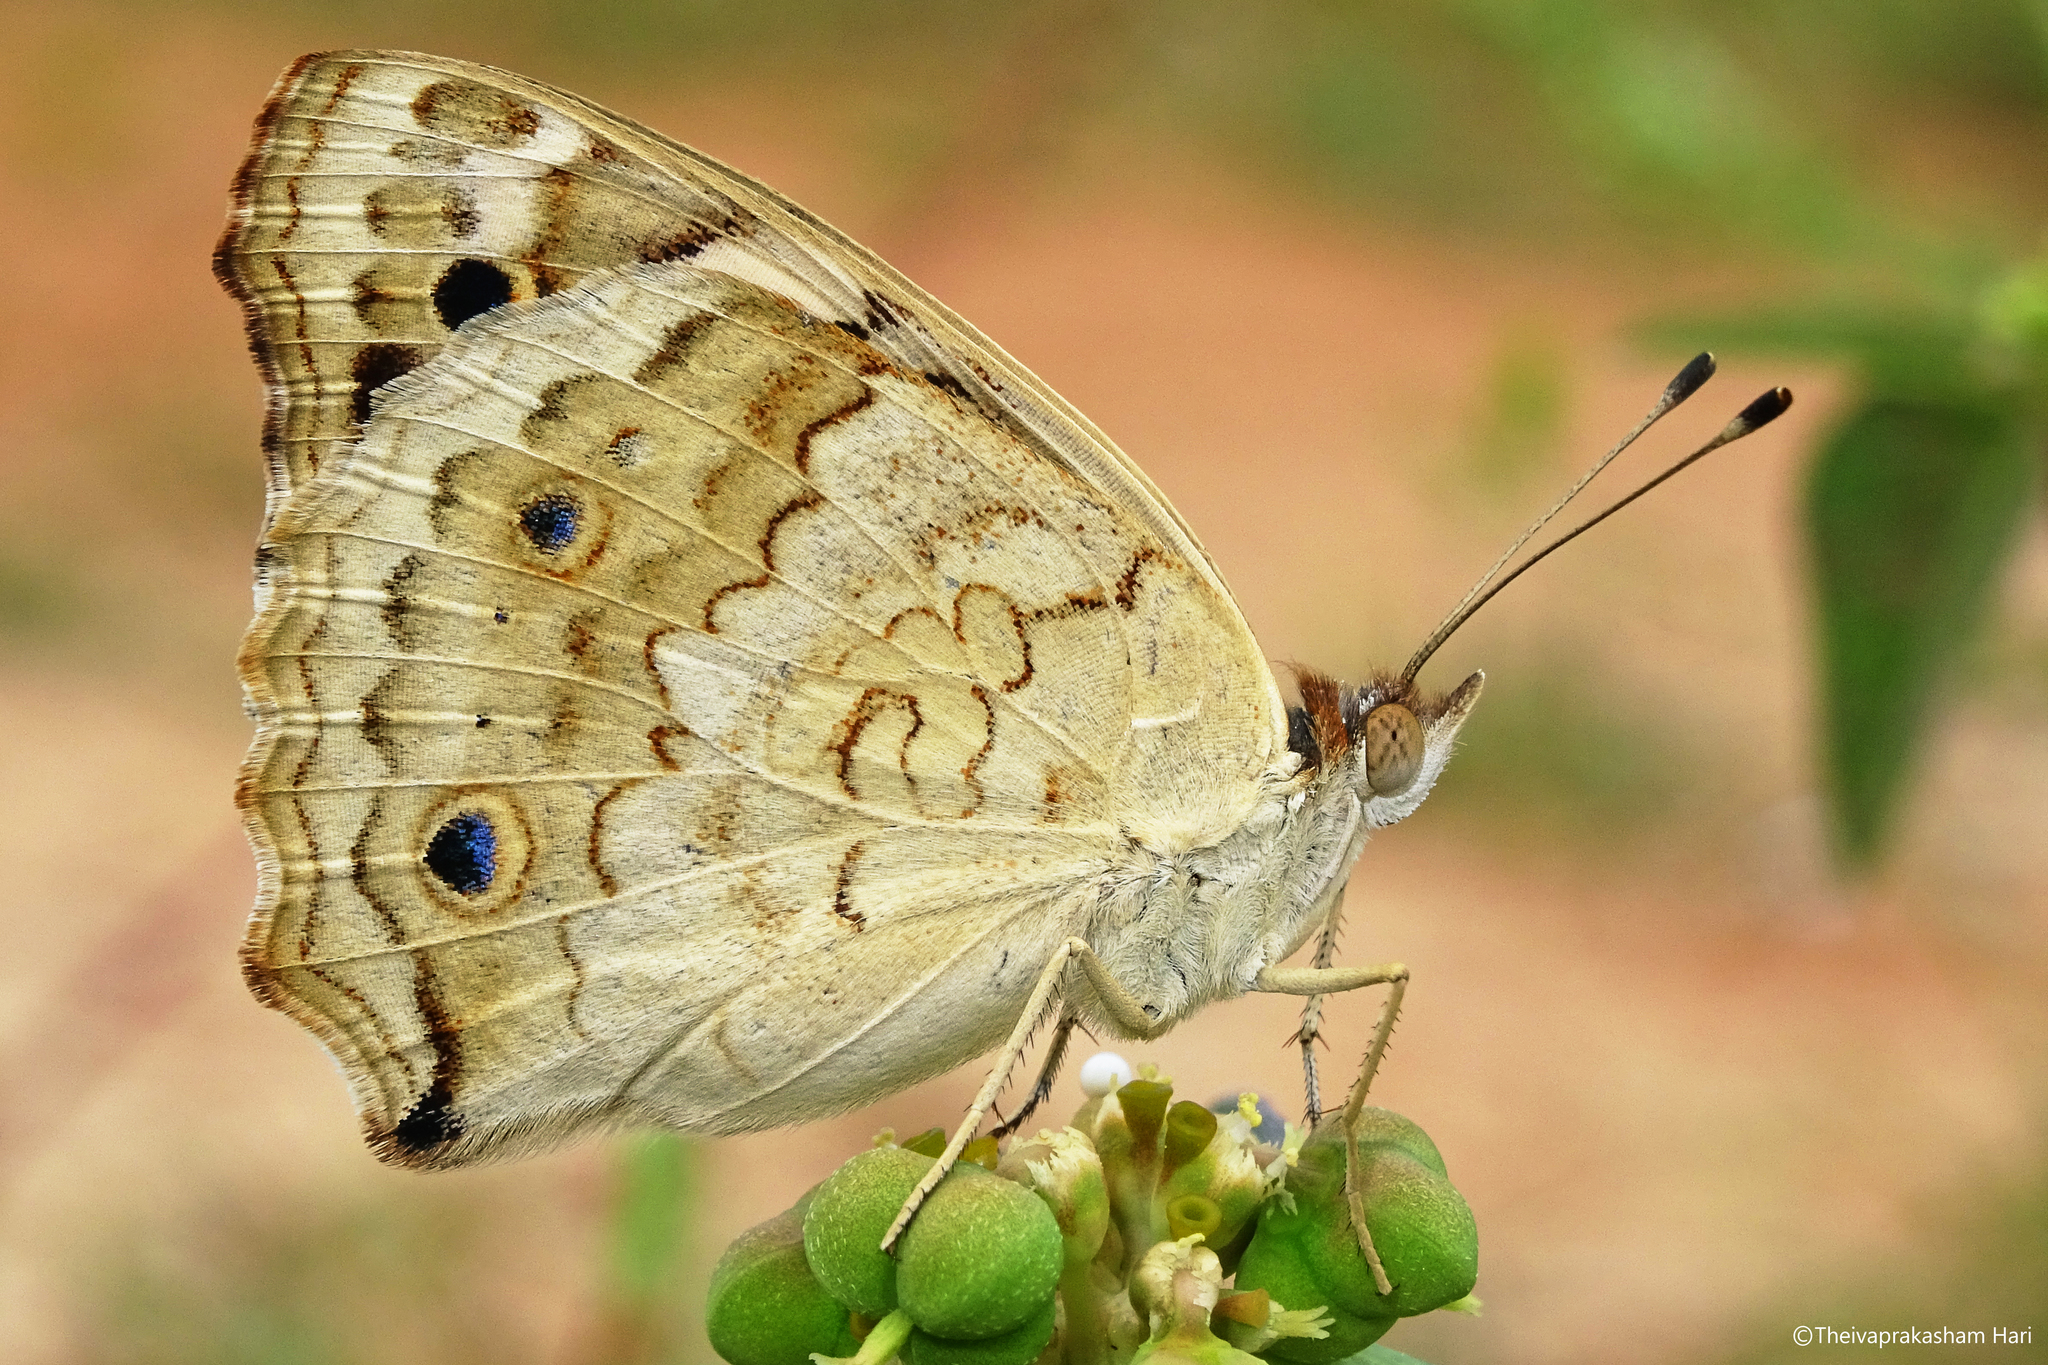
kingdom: Animalia
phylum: Arthropoda
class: Insecta
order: Lepidoptera
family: Nymphalidae
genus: Junonia
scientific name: Junonia orithya
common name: Blue pansy
